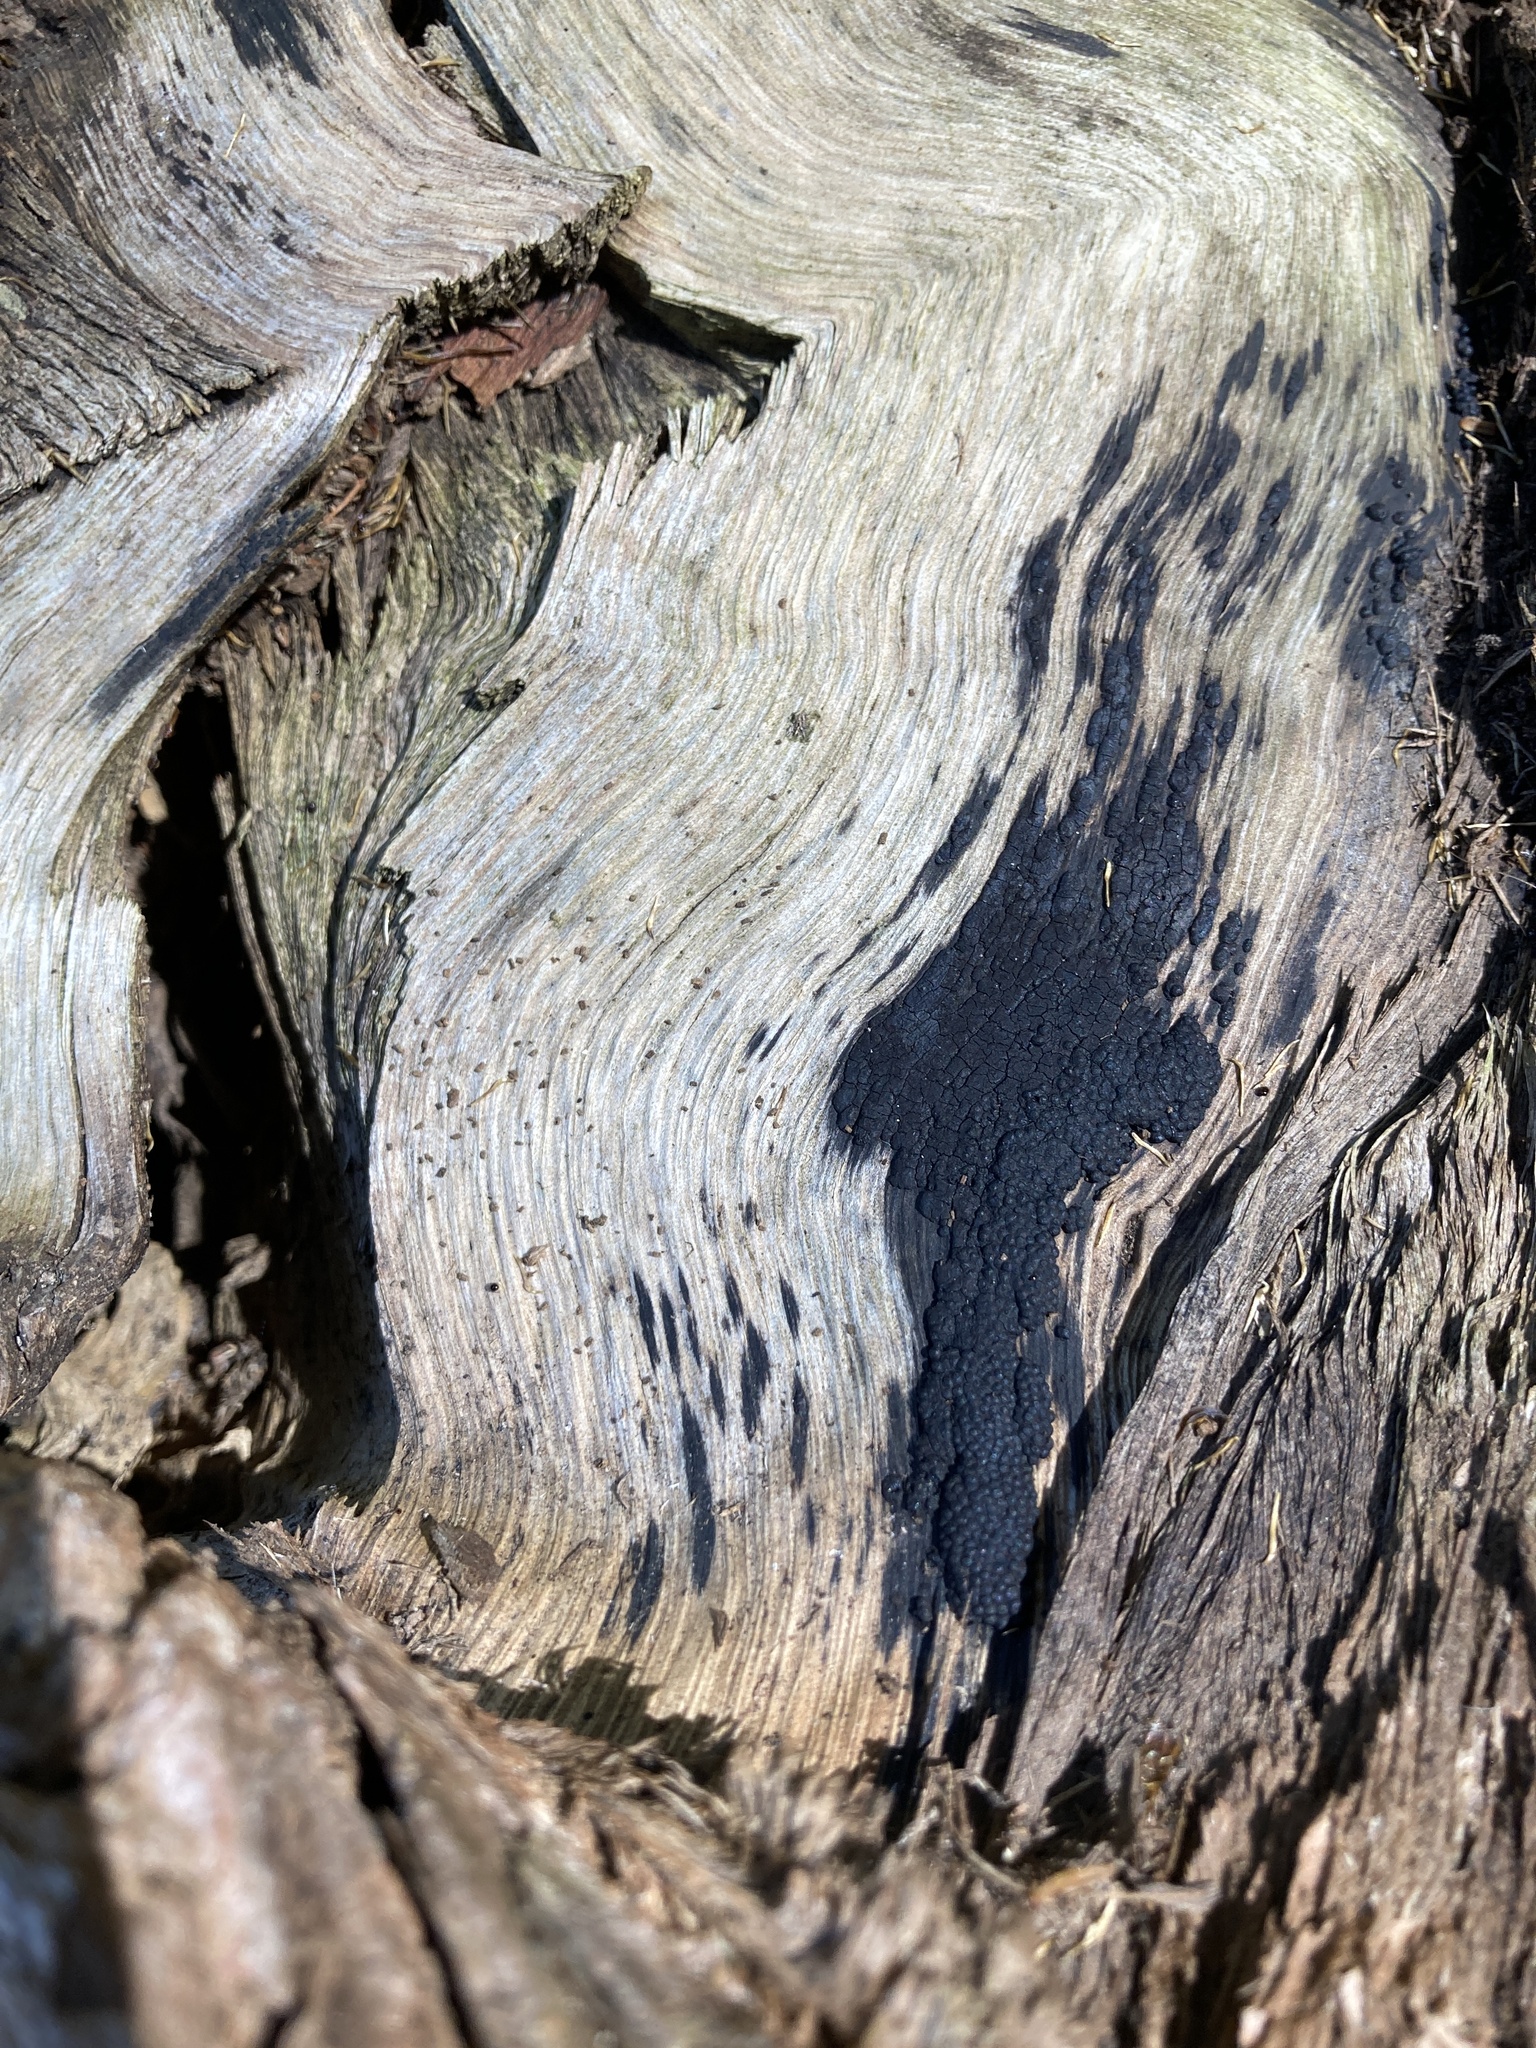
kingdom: Fungi
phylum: Ascomycota
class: Sordariomycetes
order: Xylariales
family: Hypoxylaceae
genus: Annulohypoxylon
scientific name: Annulohypoxylon bovei
